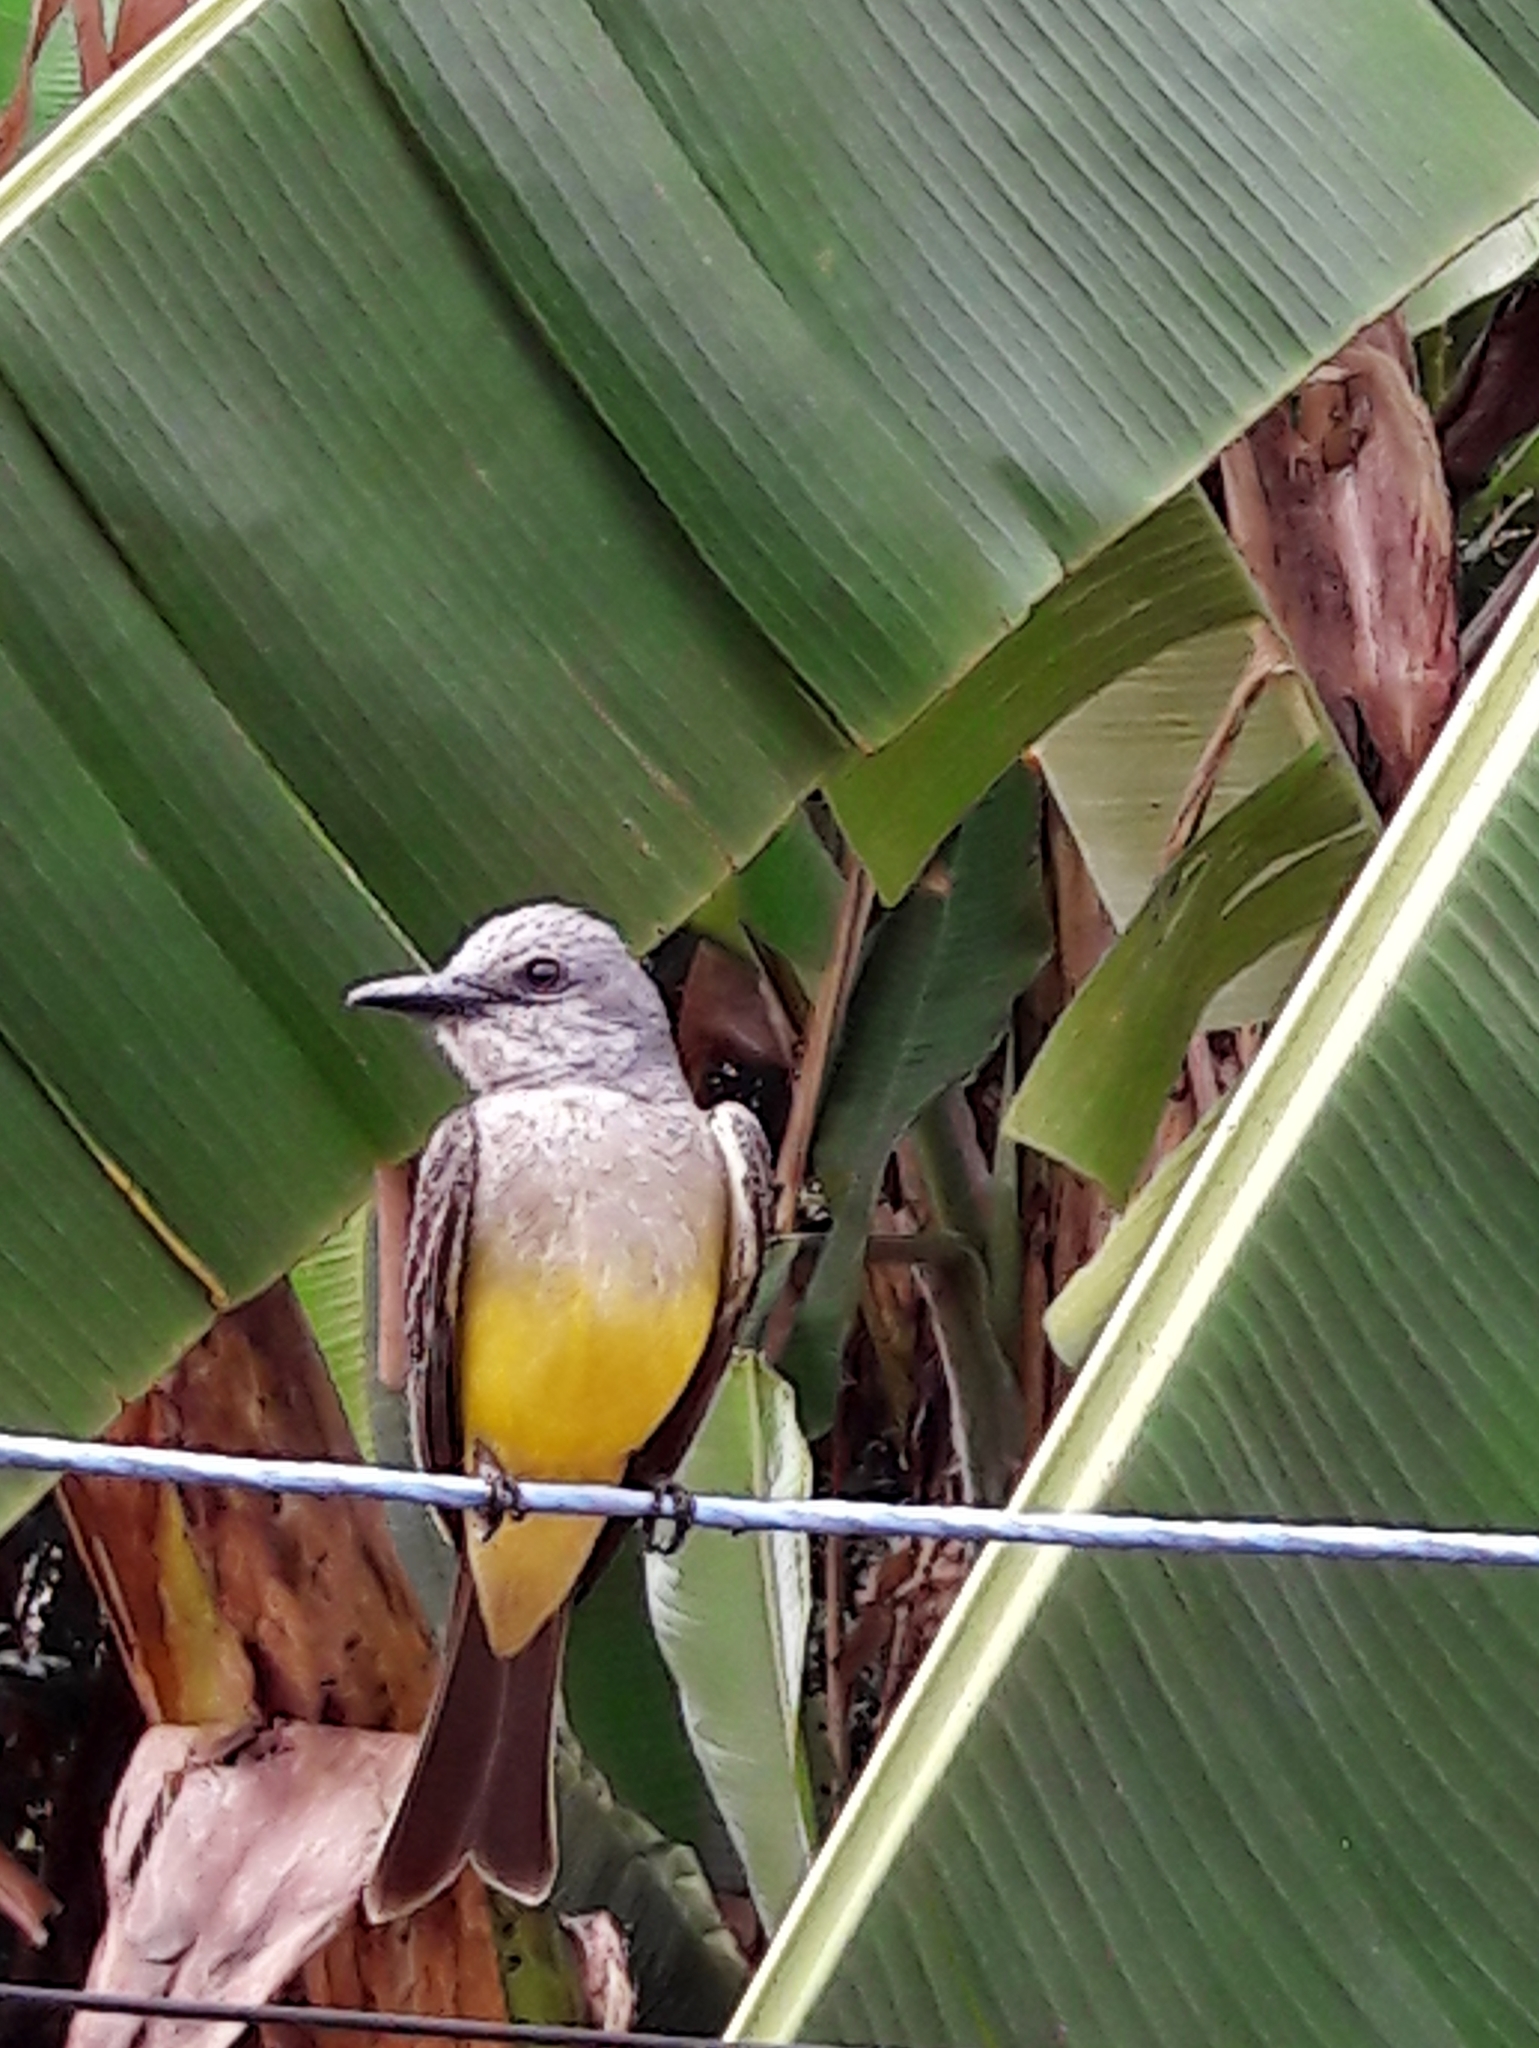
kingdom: Animalia
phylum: Chordata
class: Aves
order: Passeriformes
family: Tyrannidae
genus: Tyrannus
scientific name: Tyrannus melancholicus
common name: Tropical kingbird
